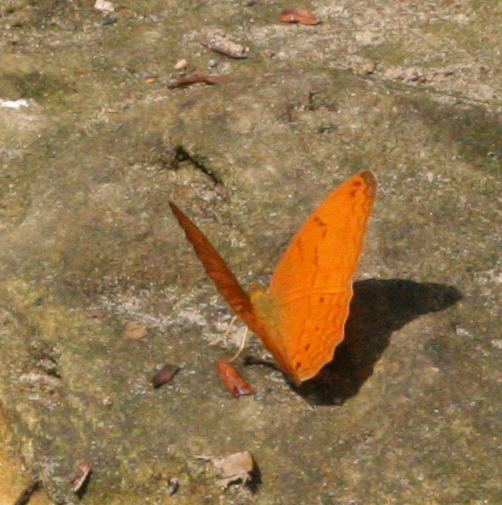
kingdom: Animalia
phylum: Arthropoda
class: Insecta
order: Lepidoptera
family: Nymphalidae
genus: Cirrochroa
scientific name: Cirrochroa tyche
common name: Common yeoman
